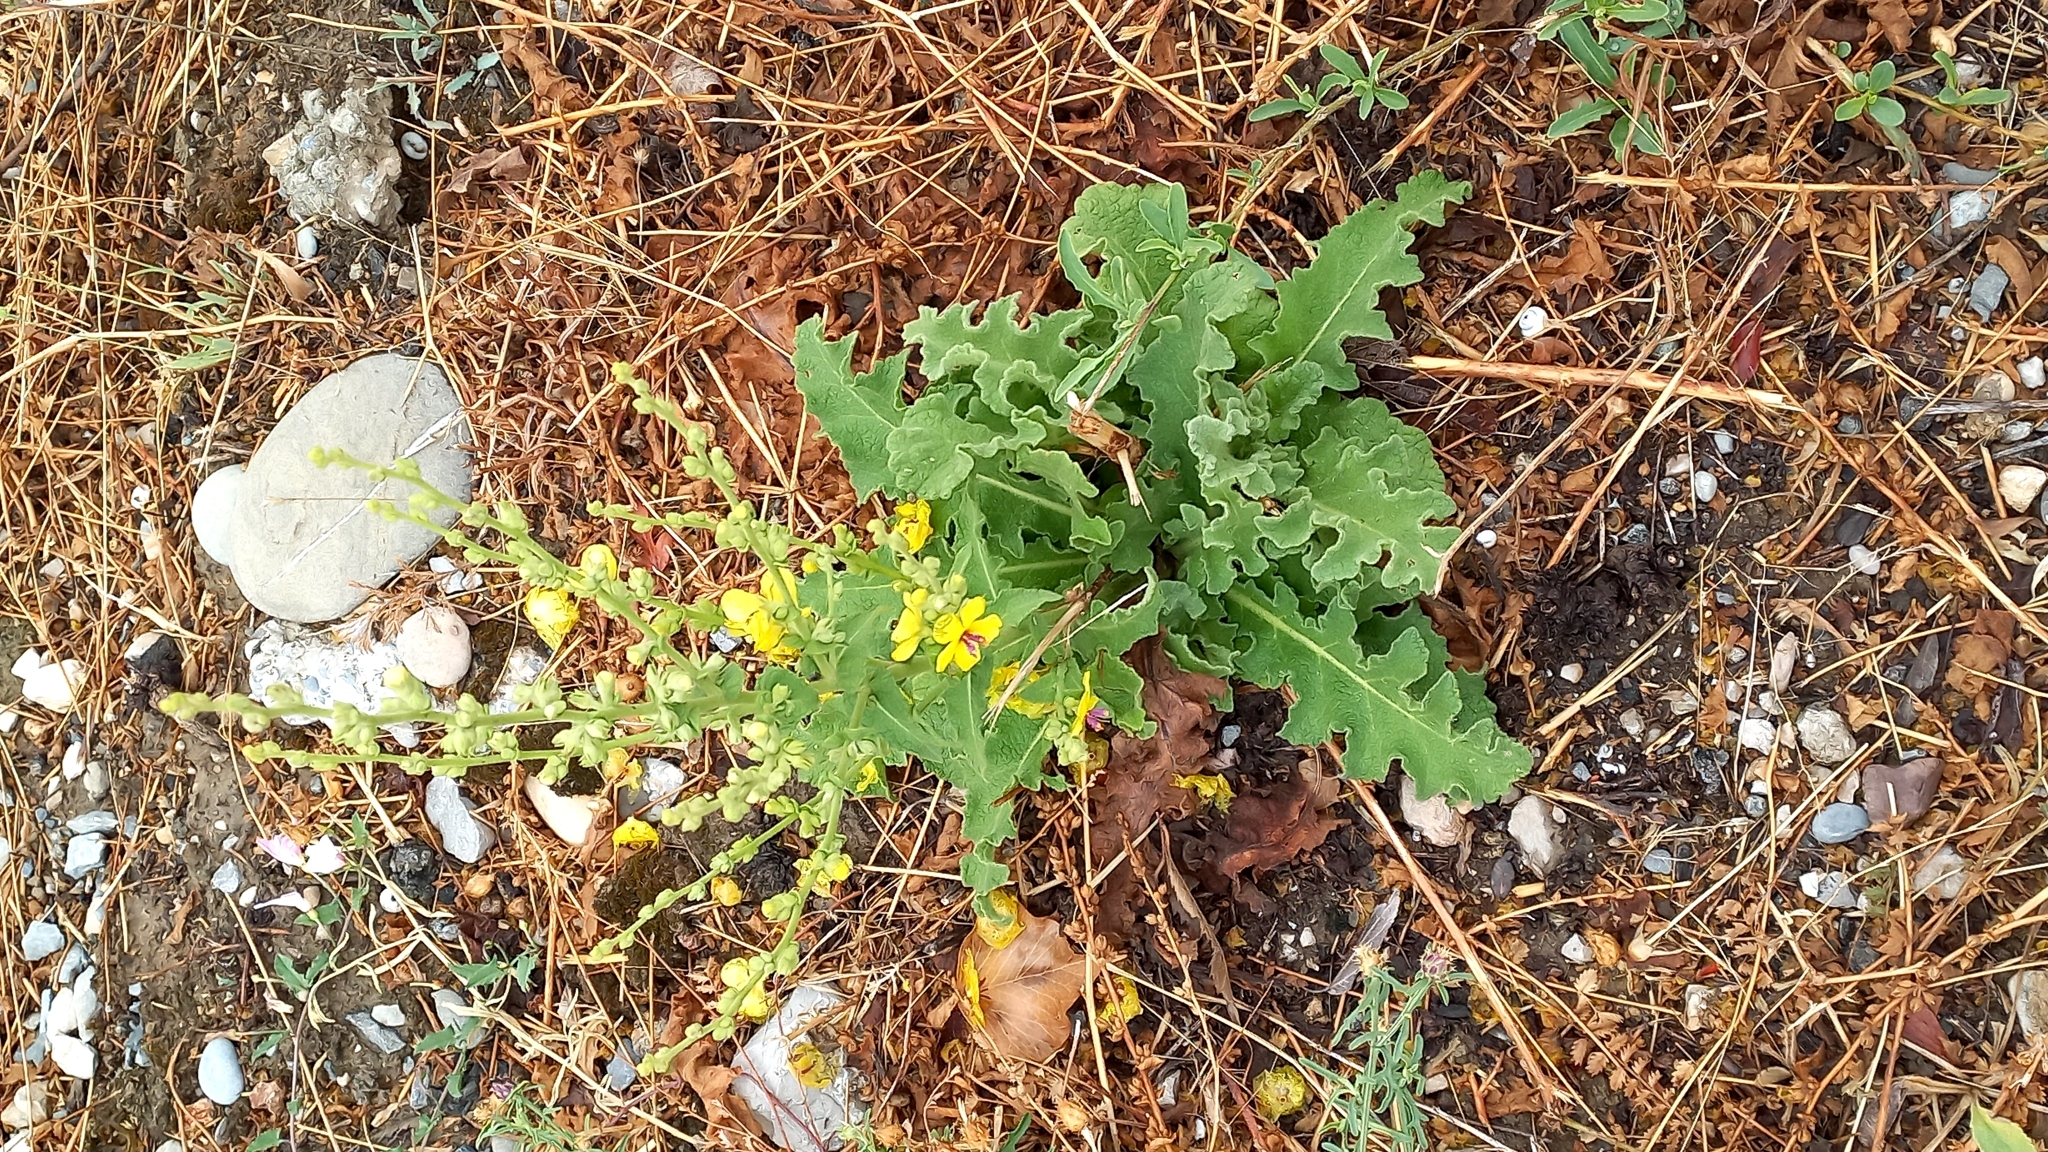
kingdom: Plantae
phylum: Tracheophyta
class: Magnoliopsida
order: Lamiales
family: Scrophulariaceae
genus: Verbascum
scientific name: Verbascum sinuatum
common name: Wavyleaf mullein
